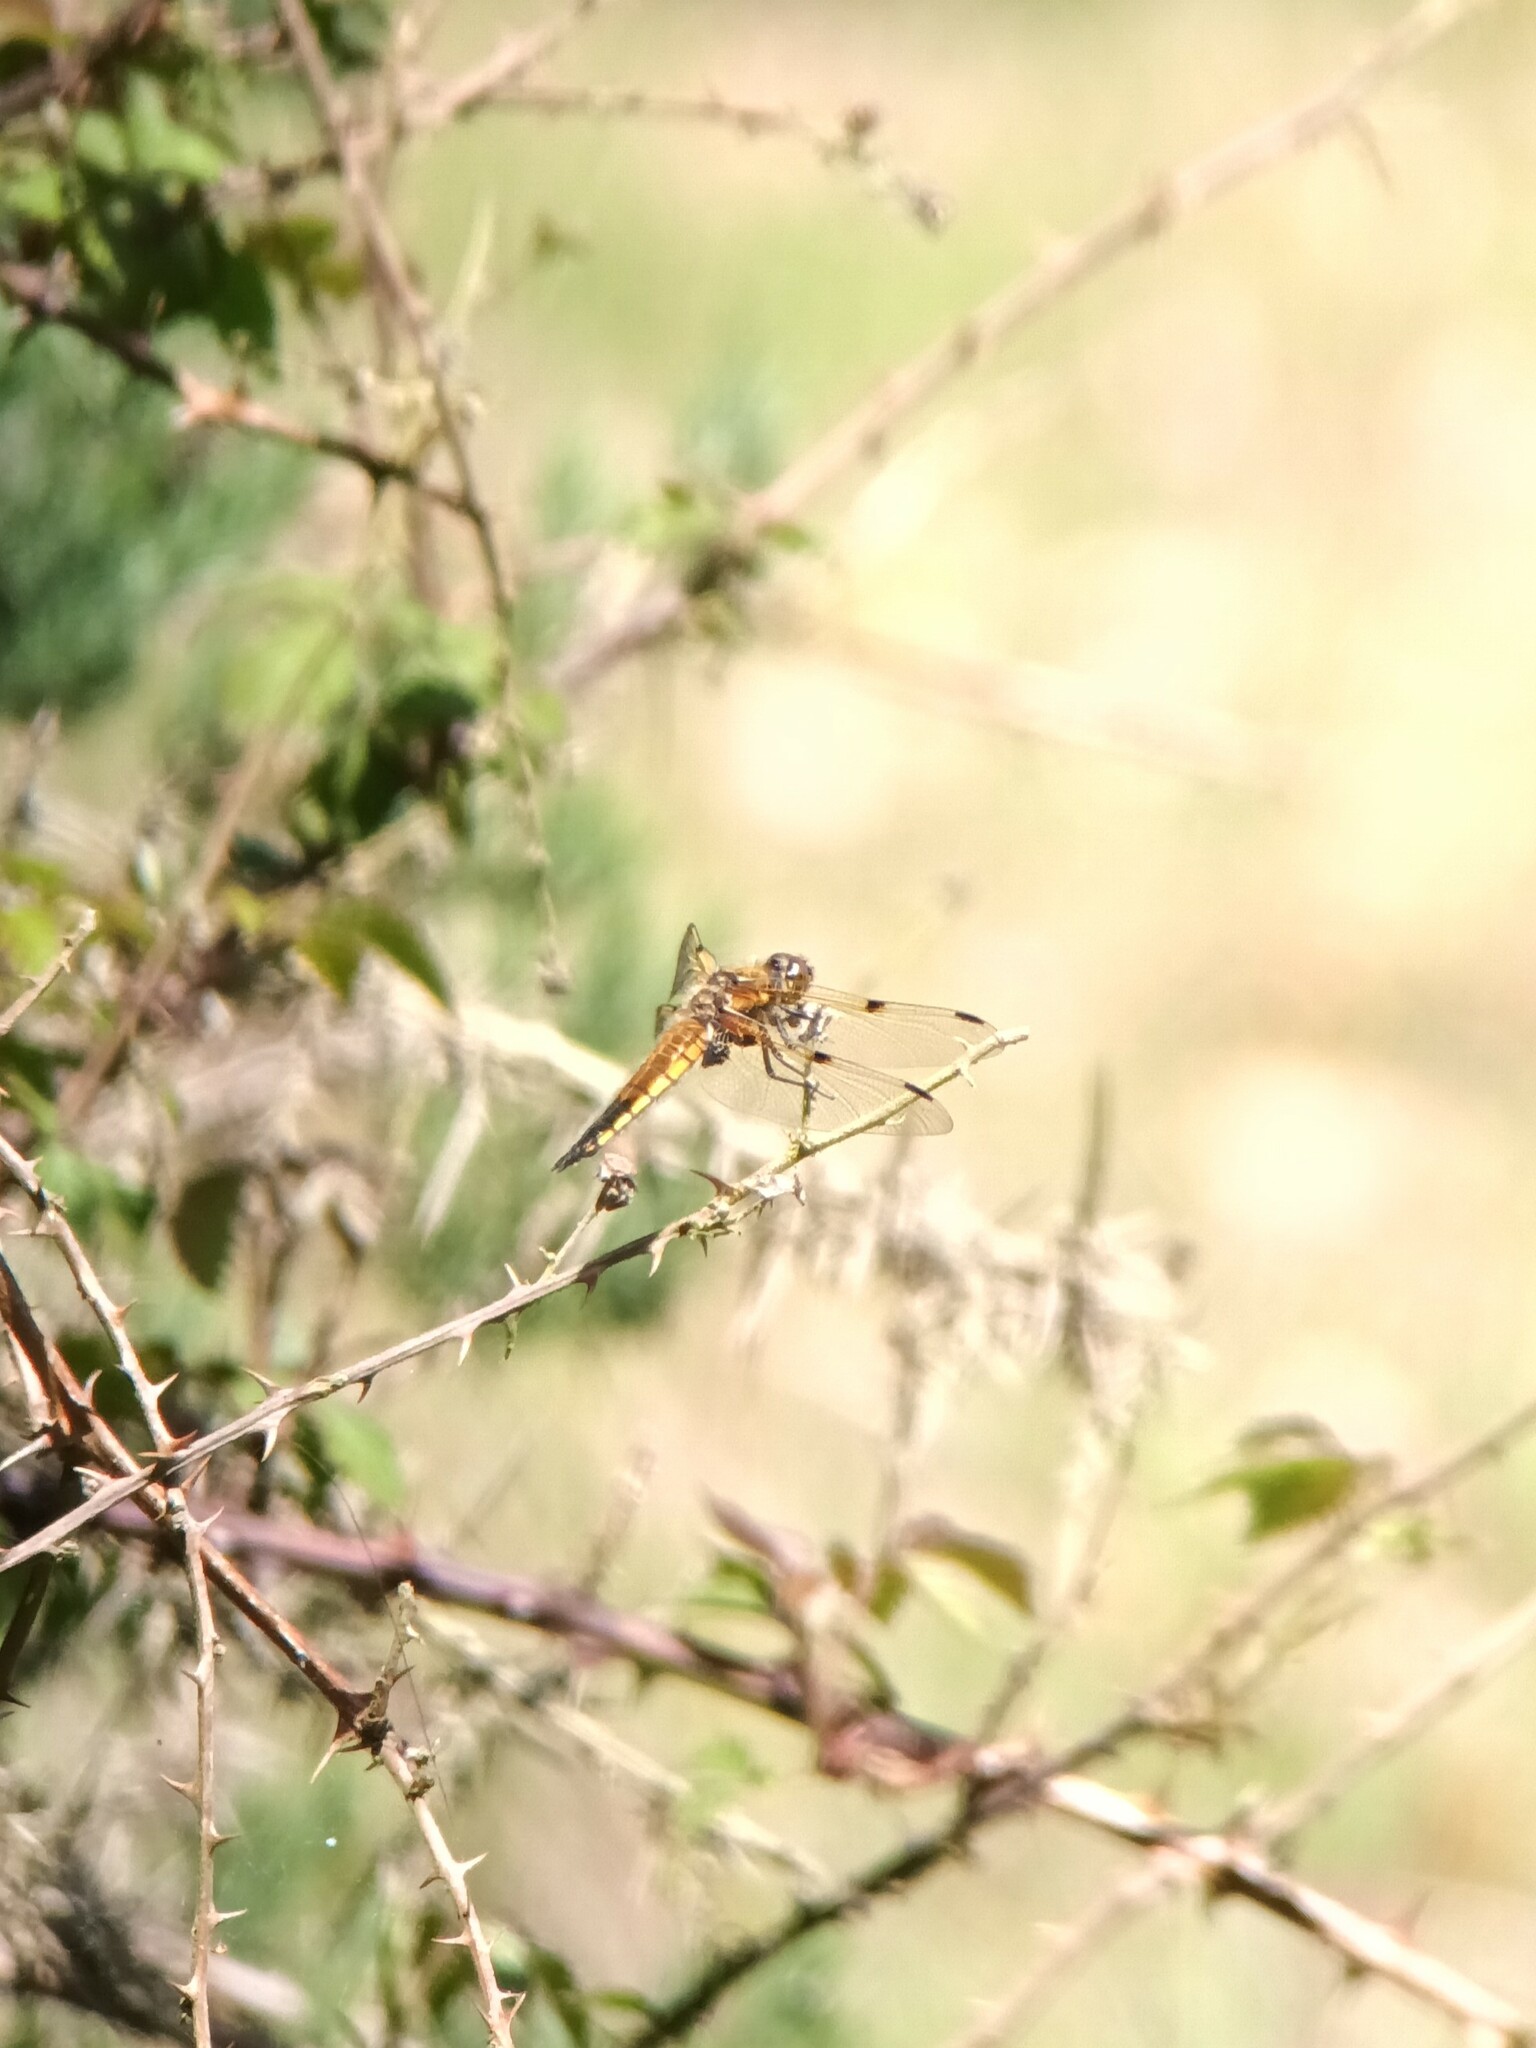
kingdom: Animalia
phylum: Arthropoda
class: Insecta
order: Odonata
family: Libellulidae
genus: Libellula
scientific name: Libellula quadrimaculata
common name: Four-spotted chaser
